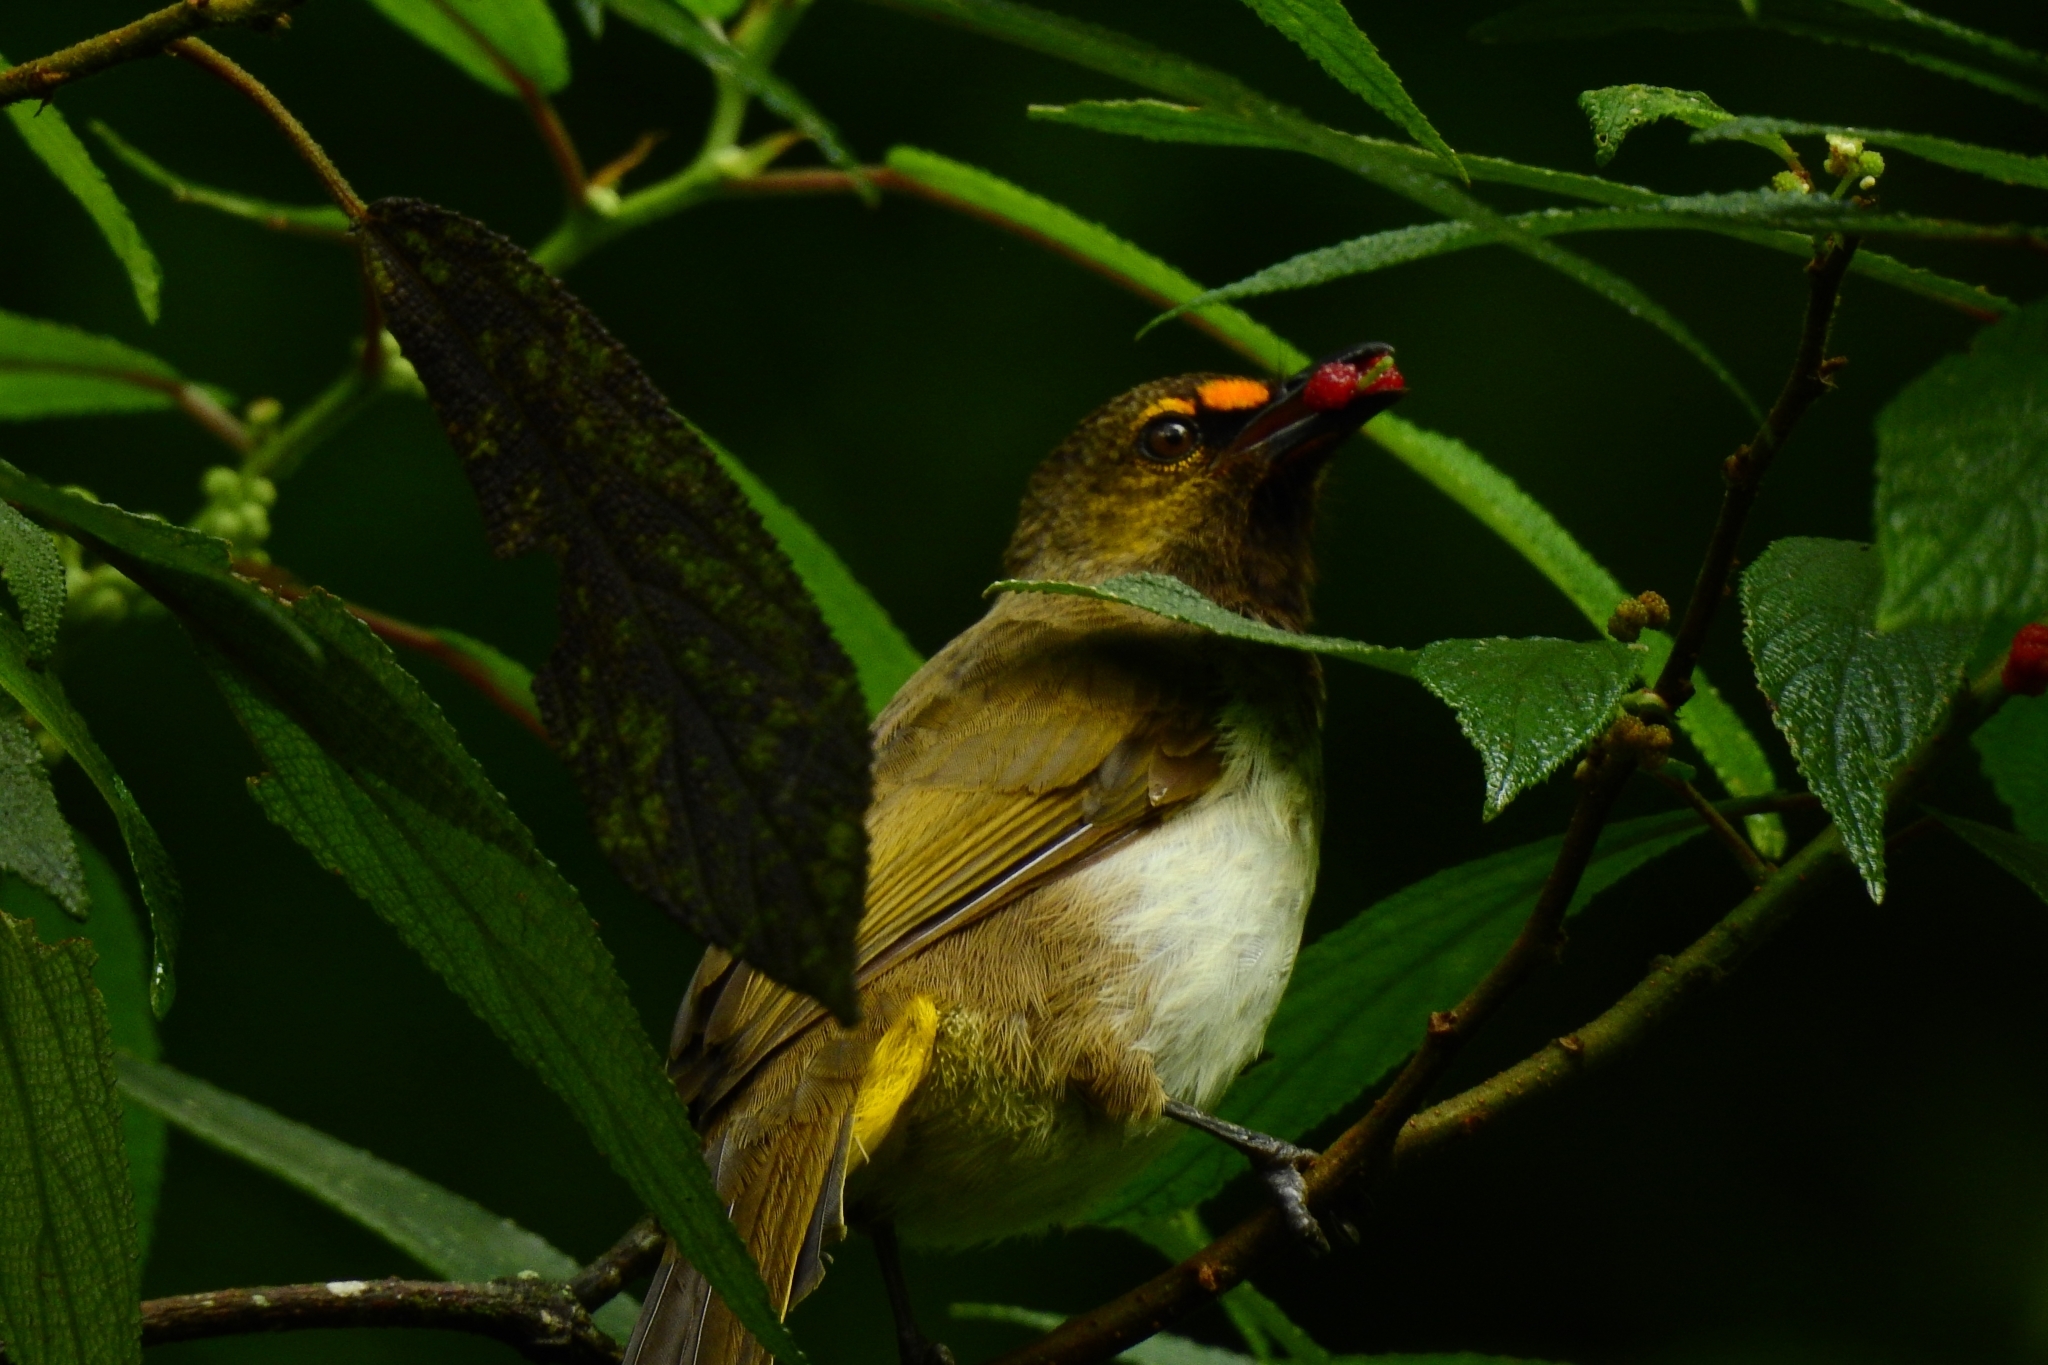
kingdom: Animalia
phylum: Chordata
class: Aves
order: Passeriformes
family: Pycnonotidae
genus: Pycnonotus
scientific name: Pycnonotus bimaculatus
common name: Orange-spotted bulbul
